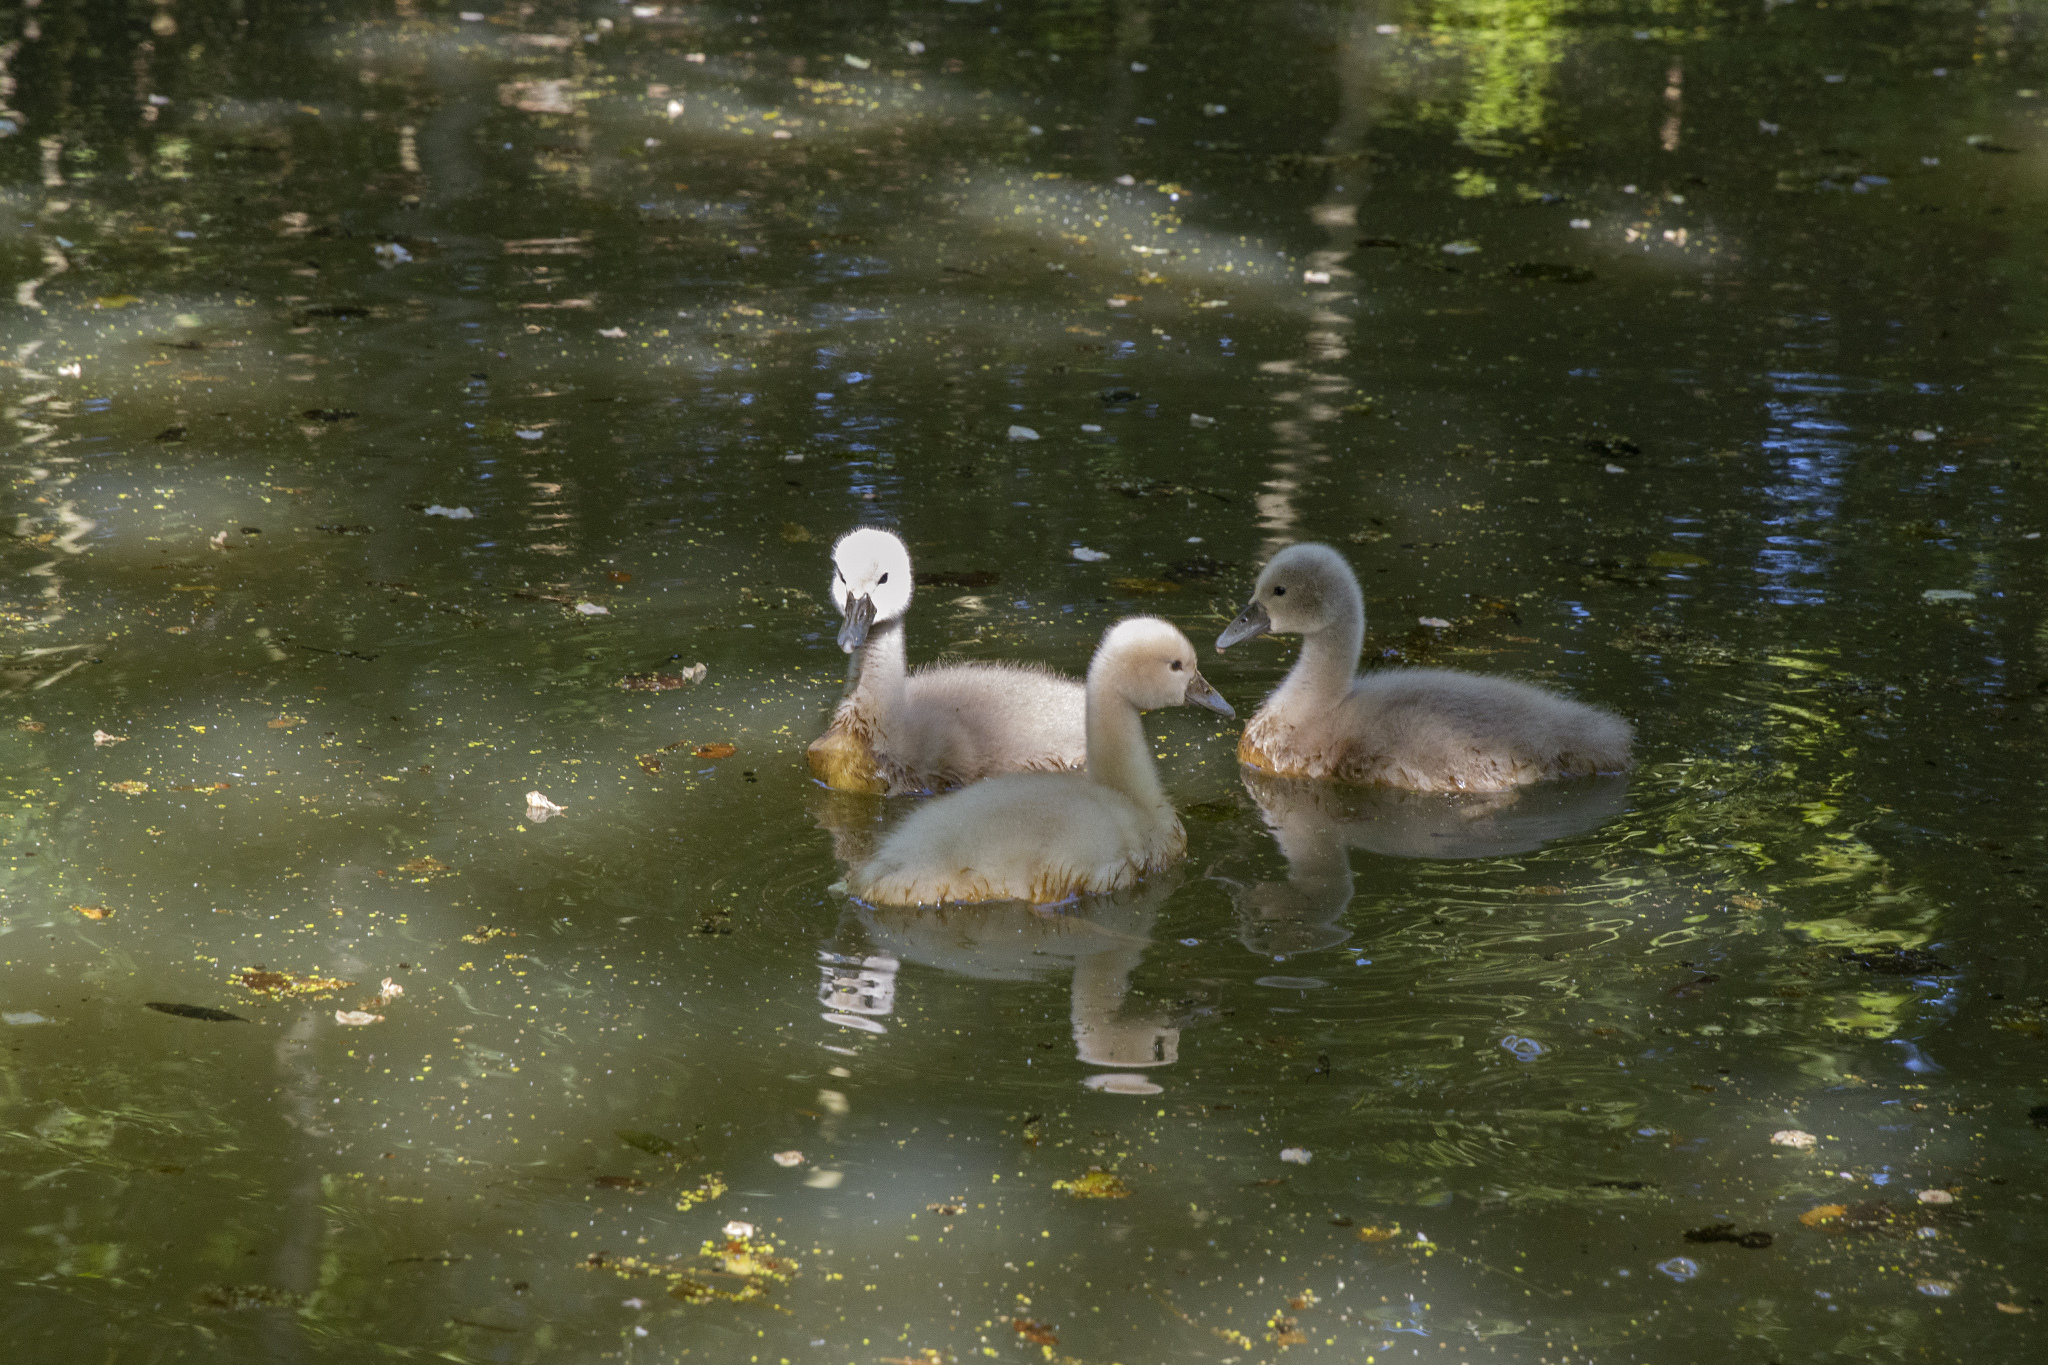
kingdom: Animalia
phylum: Chordata
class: Aves
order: Anseriformes
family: Anatidae
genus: Cygnus
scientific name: Cygnus olor
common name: Mute swan
